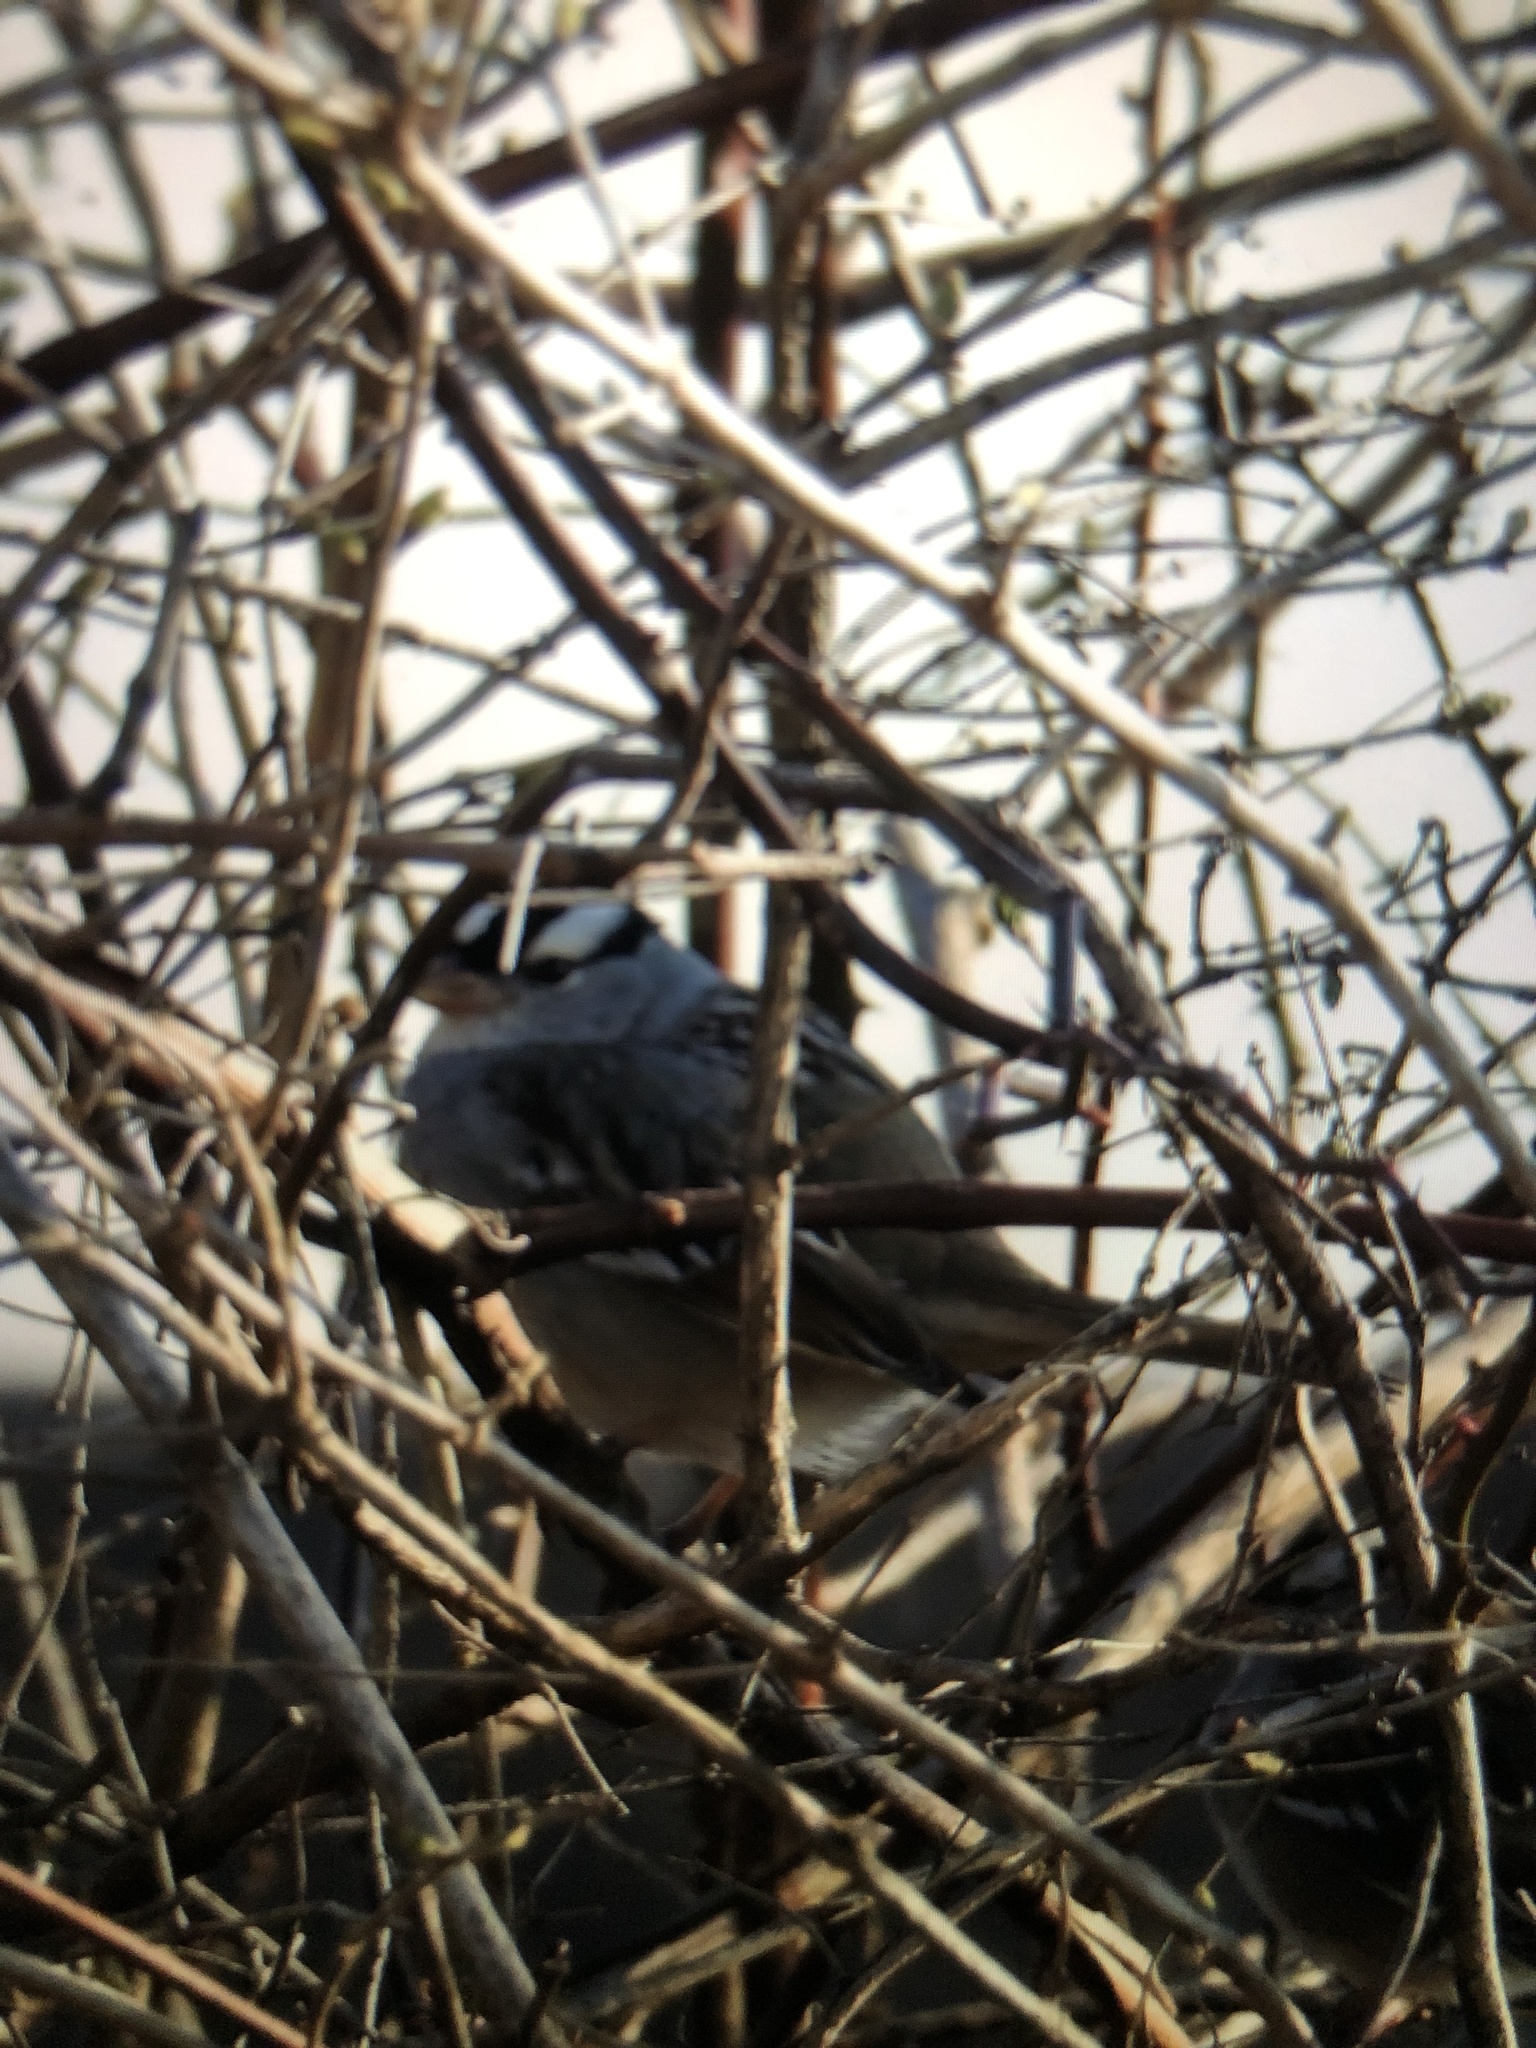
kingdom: Animalia
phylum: Chordata
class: Aves
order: Passeriformes
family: Passerellidae
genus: Zonotrichia
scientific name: Zonotrichia leucophrys
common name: White-crowned sparrow
